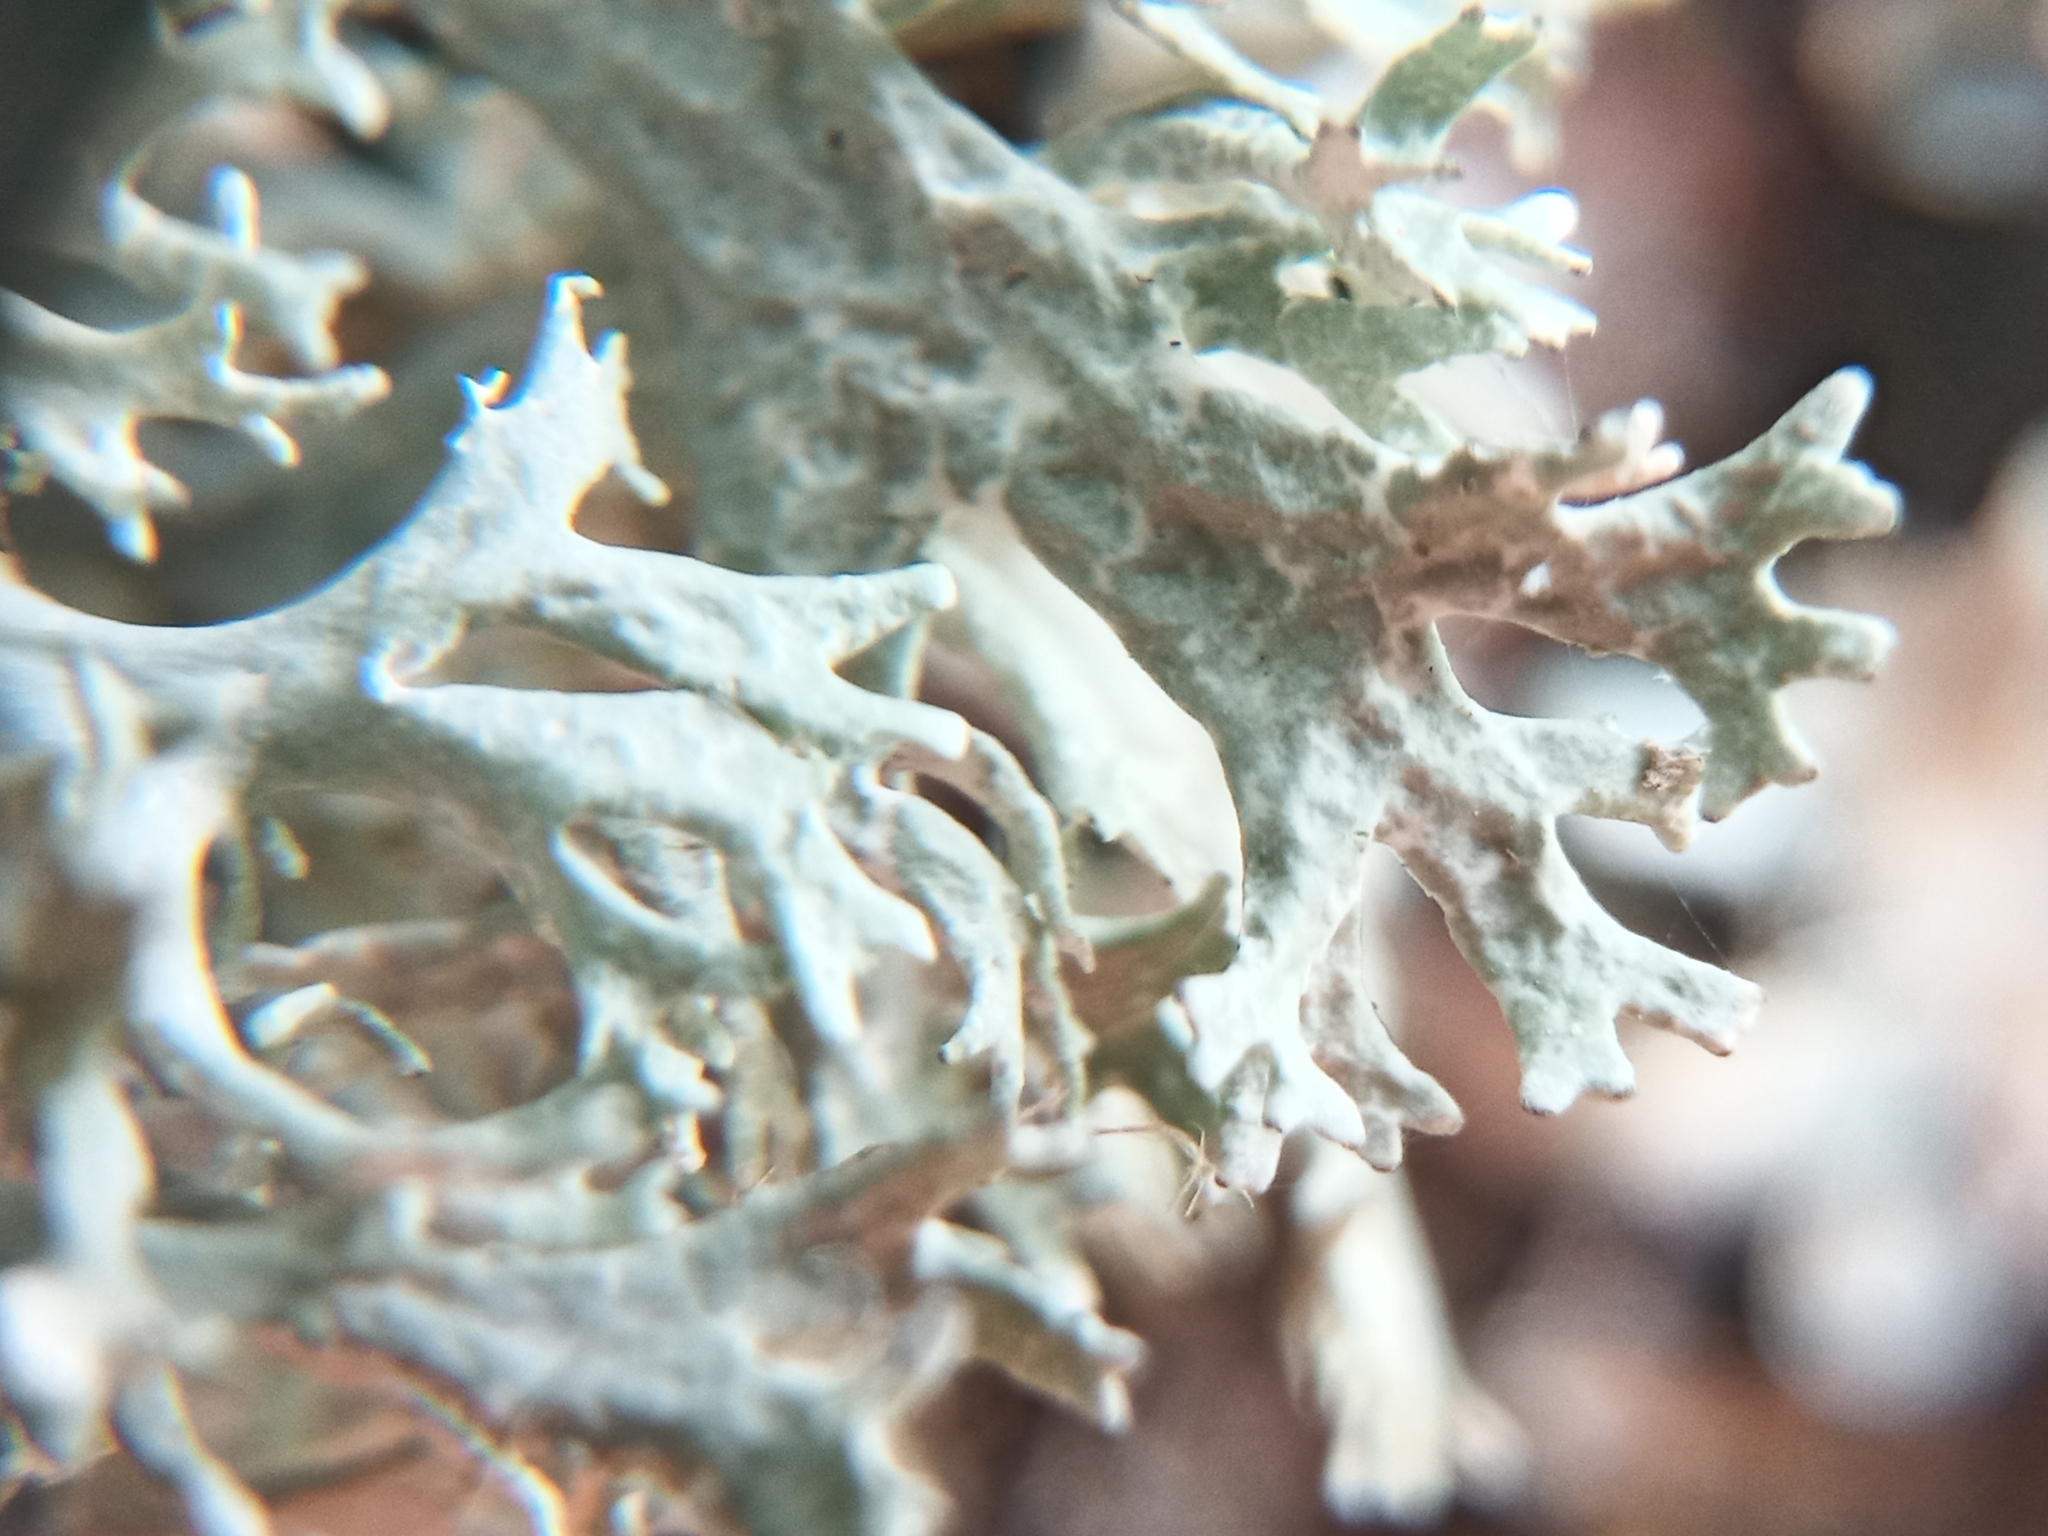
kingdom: Fungi
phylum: Ascomycota
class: Lecanoromycetes
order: Lecanorales
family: Parmeliaceae
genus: Evernia
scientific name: Evernia prunastri
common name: Oak moss
